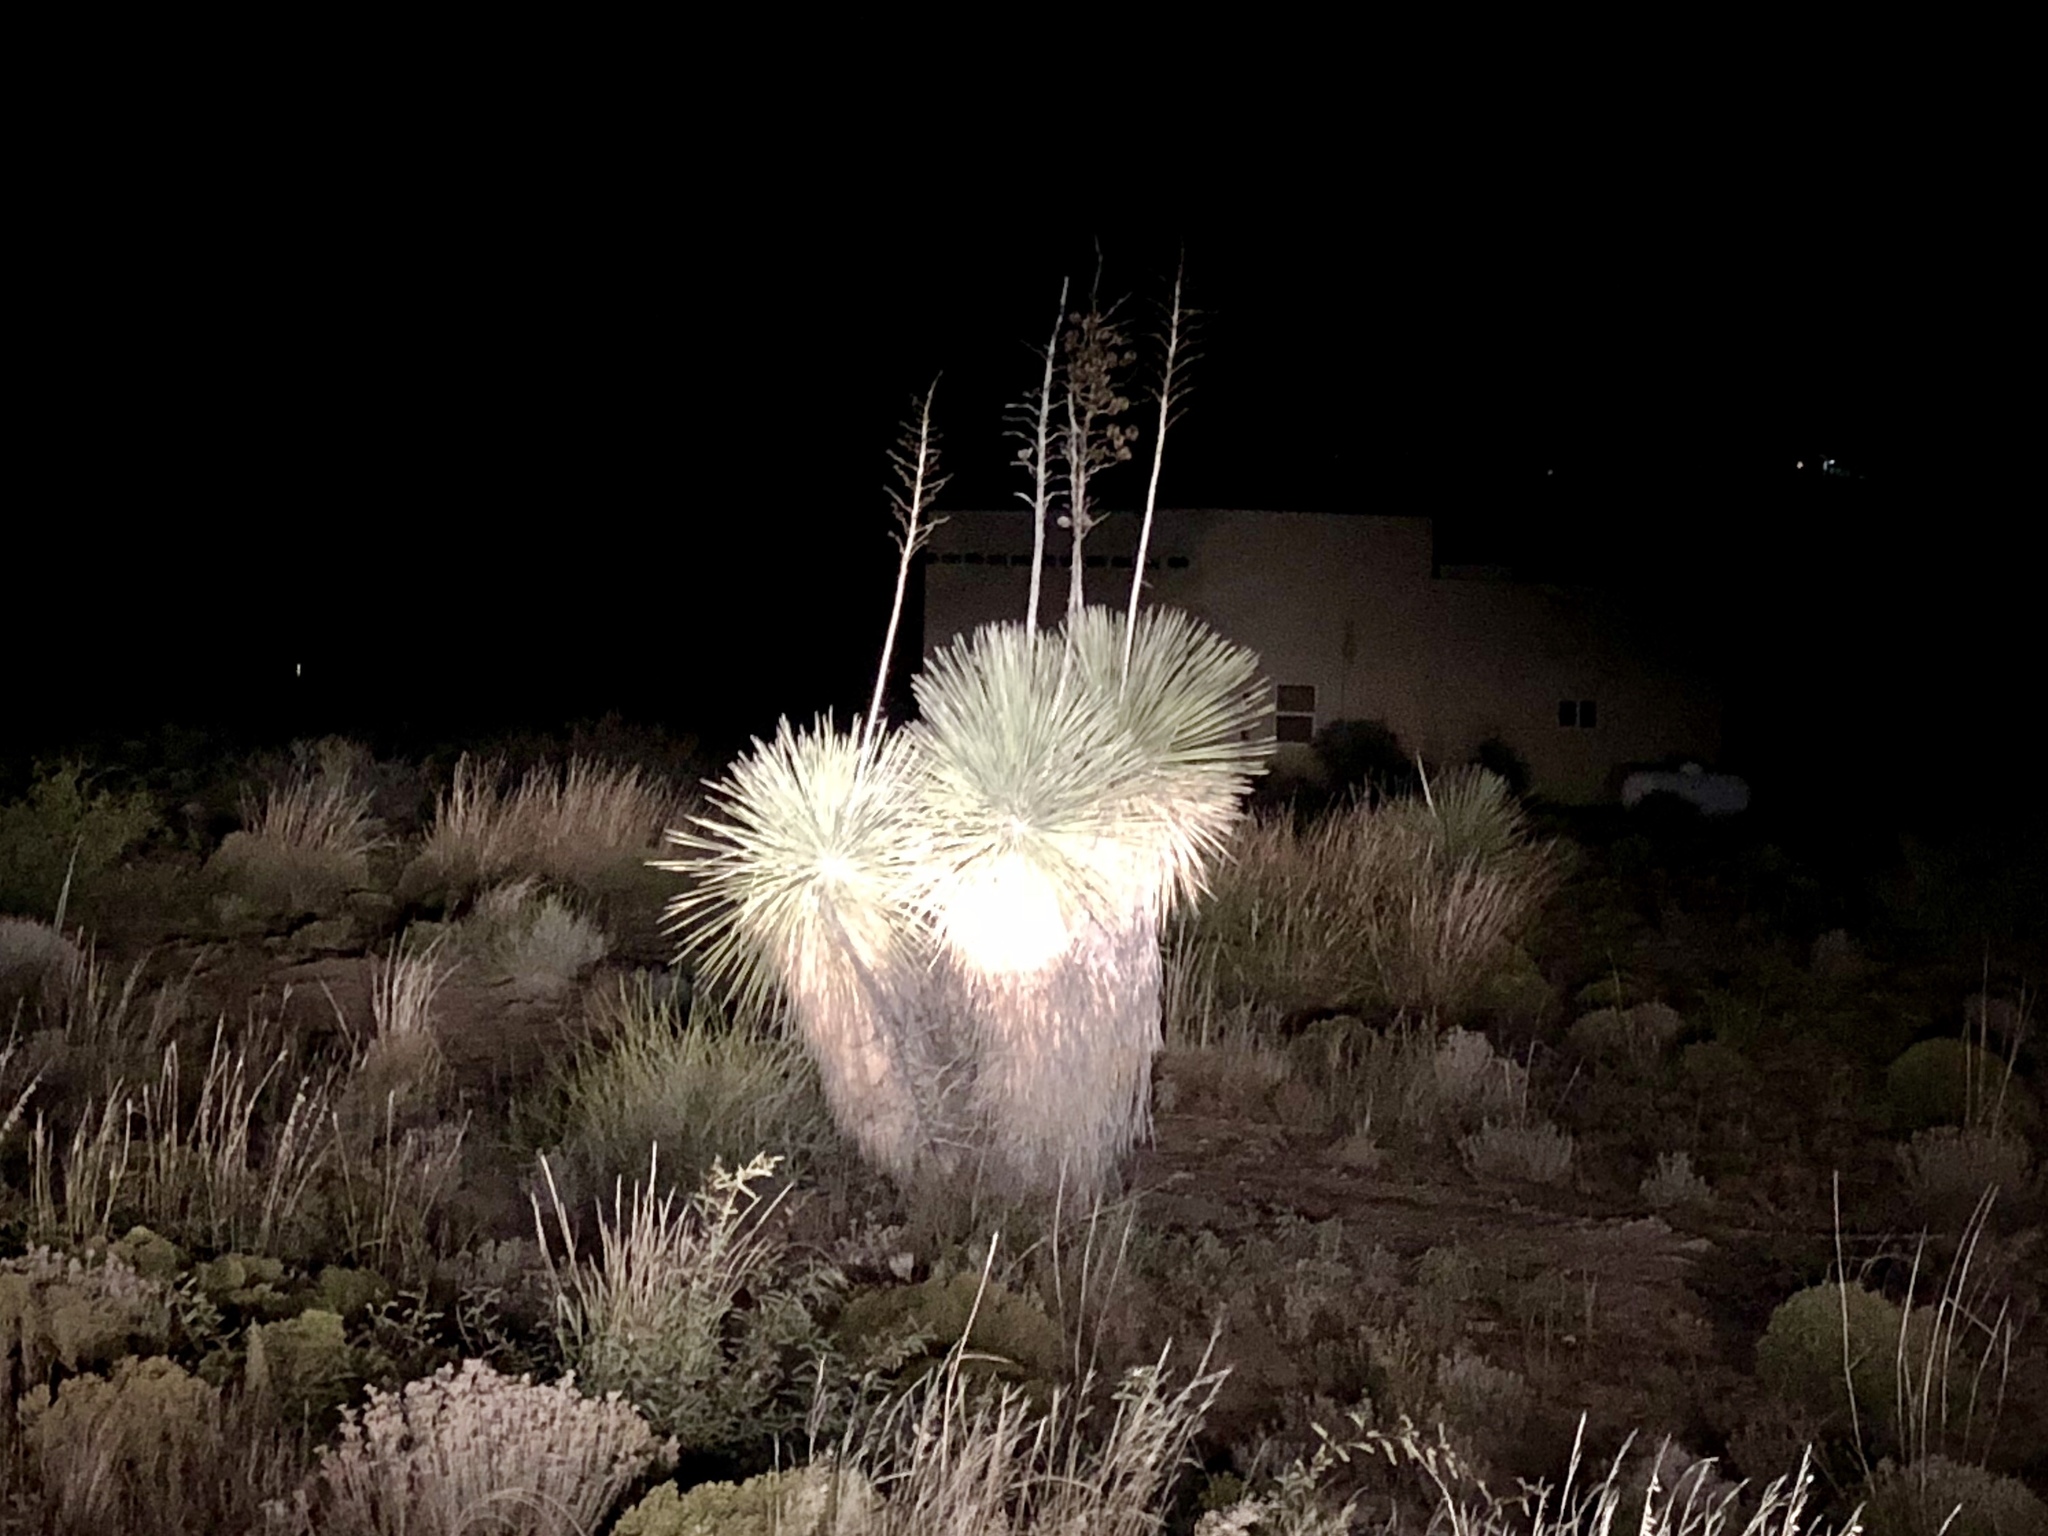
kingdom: Plantae
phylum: Tracheophyta
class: Liliopsida
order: Asparagales
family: Asparagaceae
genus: Yucca
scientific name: Yucca elata
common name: Palmella
